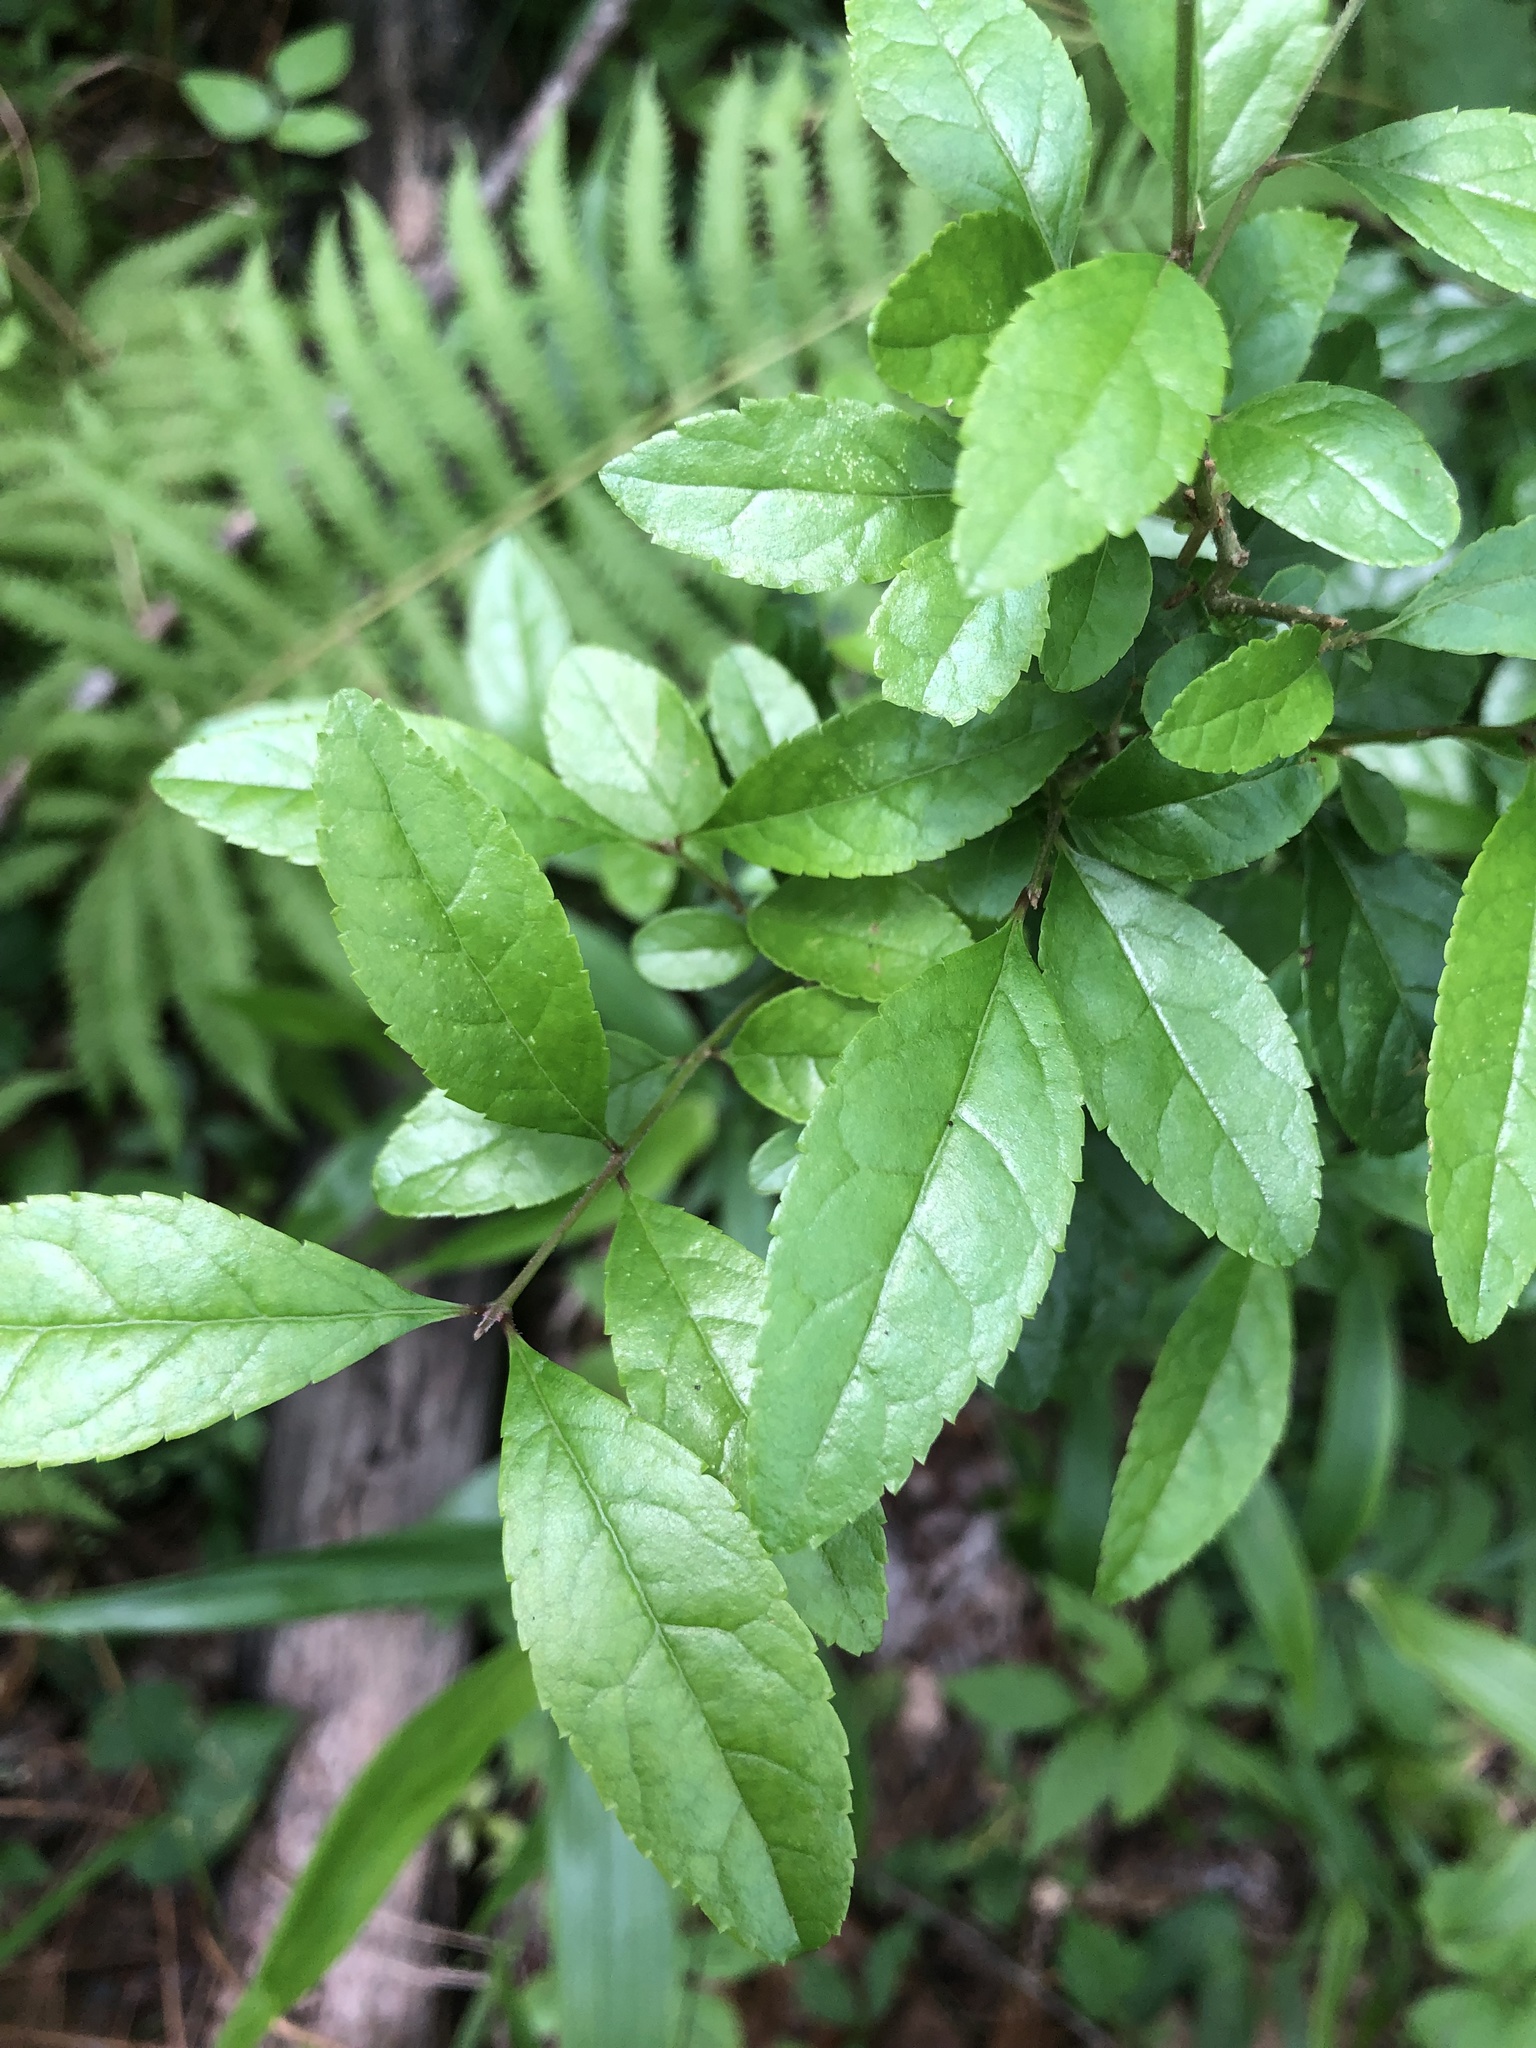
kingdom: Plantae
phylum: Tracheophyta
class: Magnoliopsida
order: Lamiales
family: Oleaceae
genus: Forestiera
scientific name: Forestiera ligustrina
